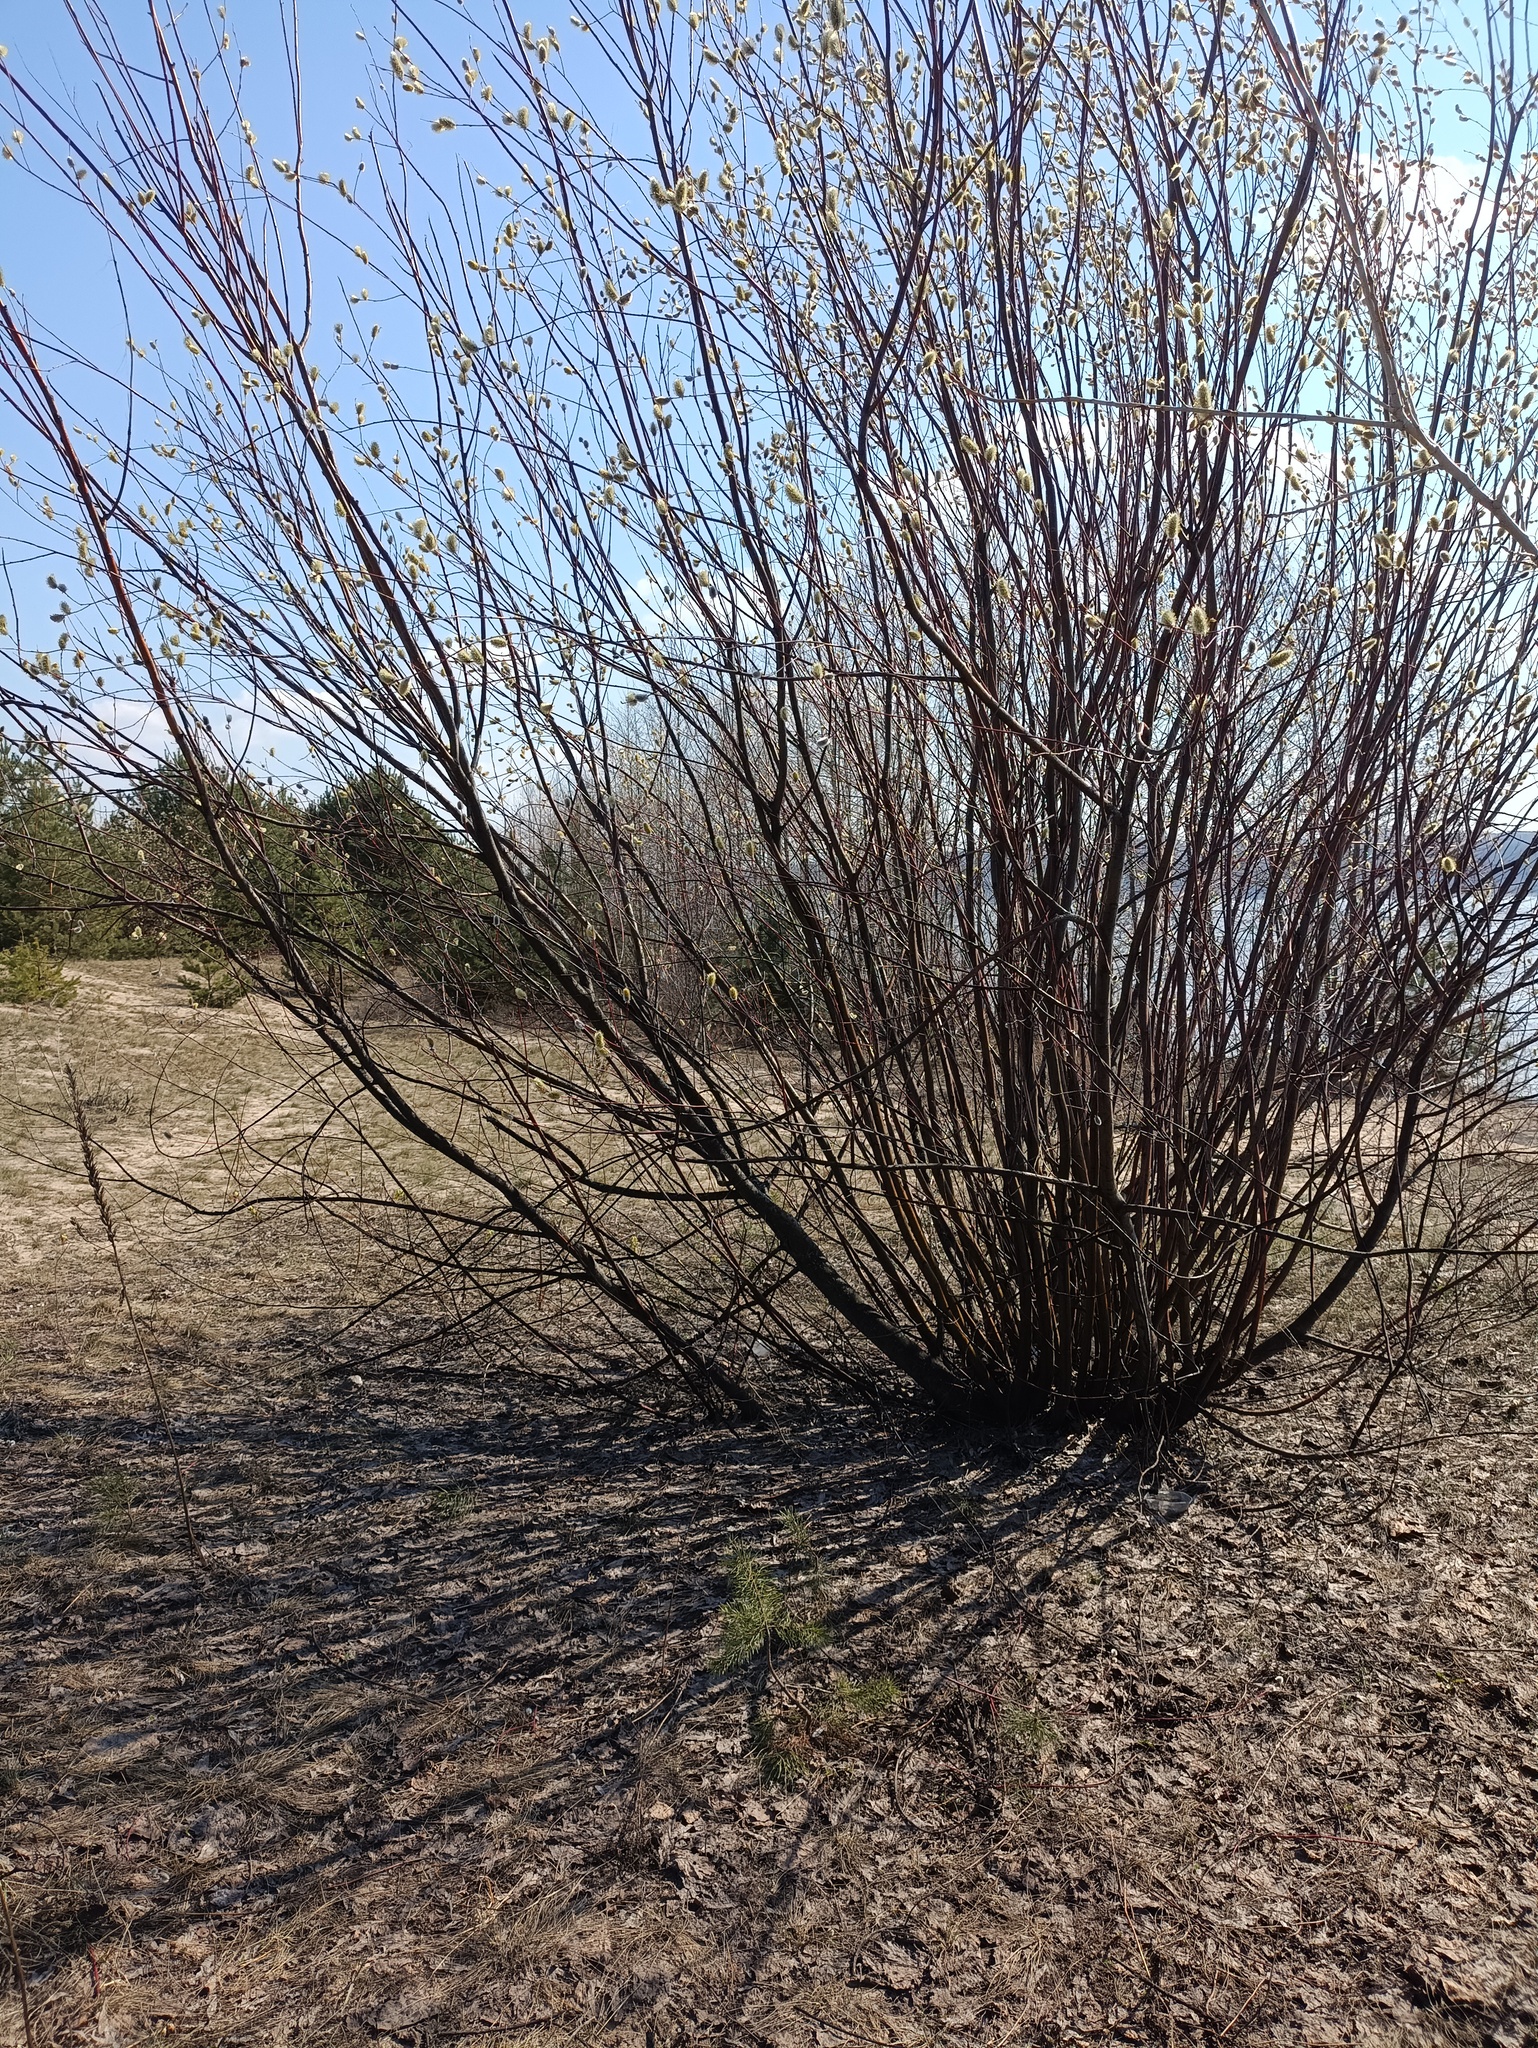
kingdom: Plantae
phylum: Tracheophyta
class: Magnoliopsida
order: Malpighiales
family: Salicaceae
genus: Salix
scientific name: Salix acutifolia
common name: Siberian violet-willow
